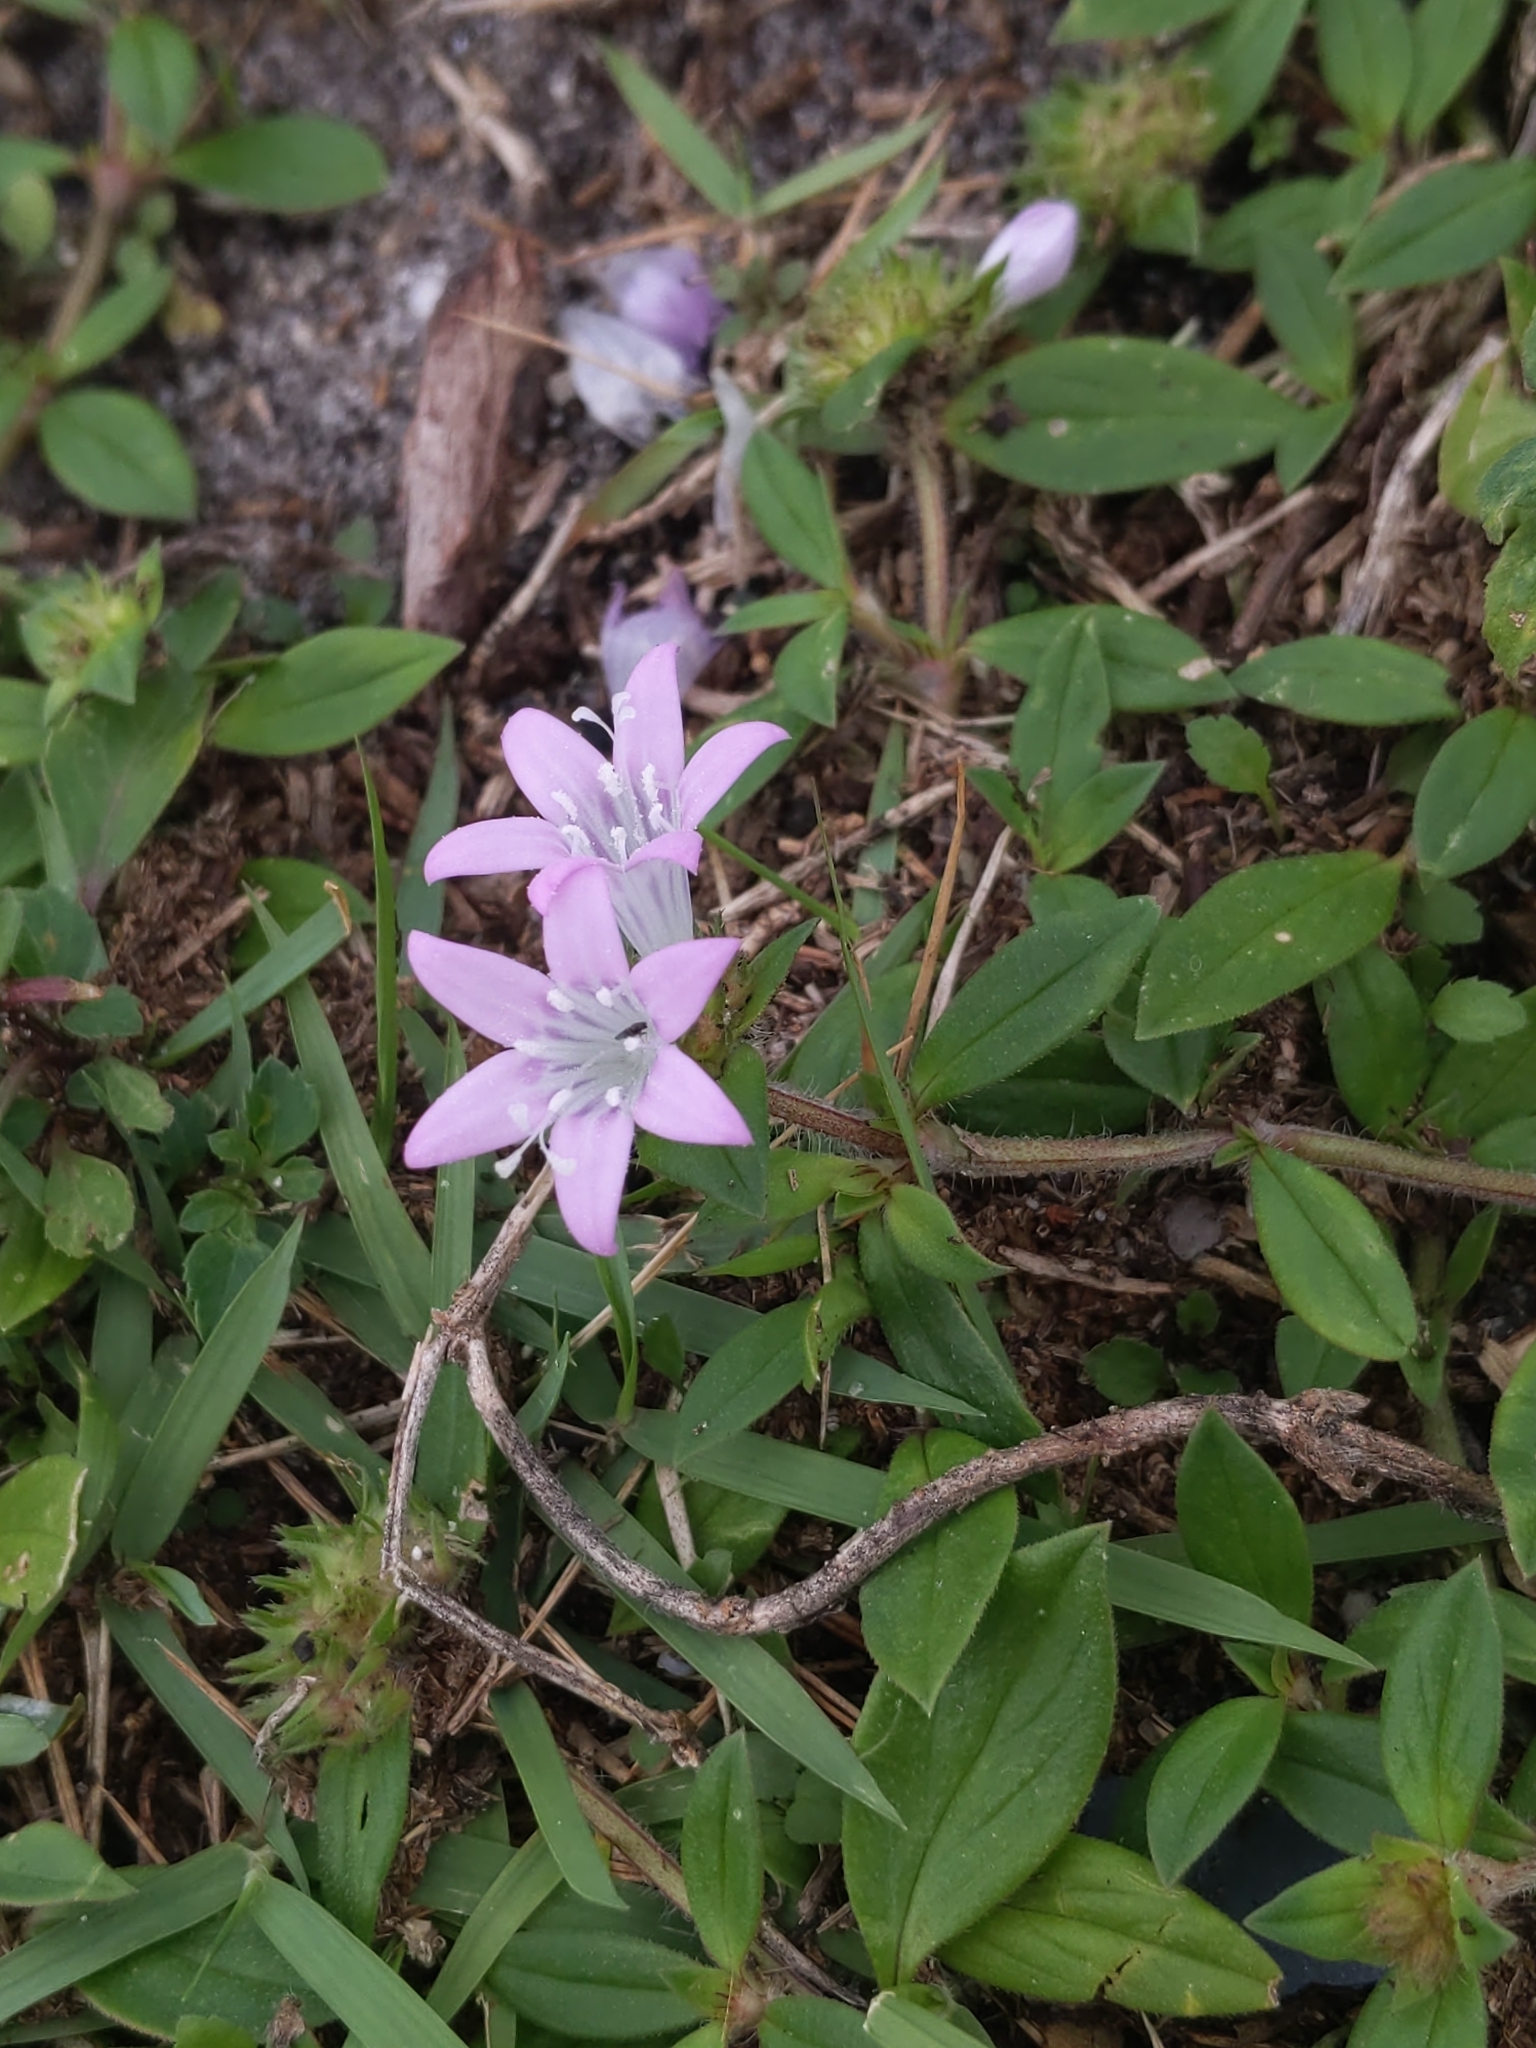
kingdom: Plantae
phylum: Tracheophyta
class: Magnoliopsida
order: Gentianales
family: Rubiaceae
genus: Richardia
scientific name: Richardia grandiflora
